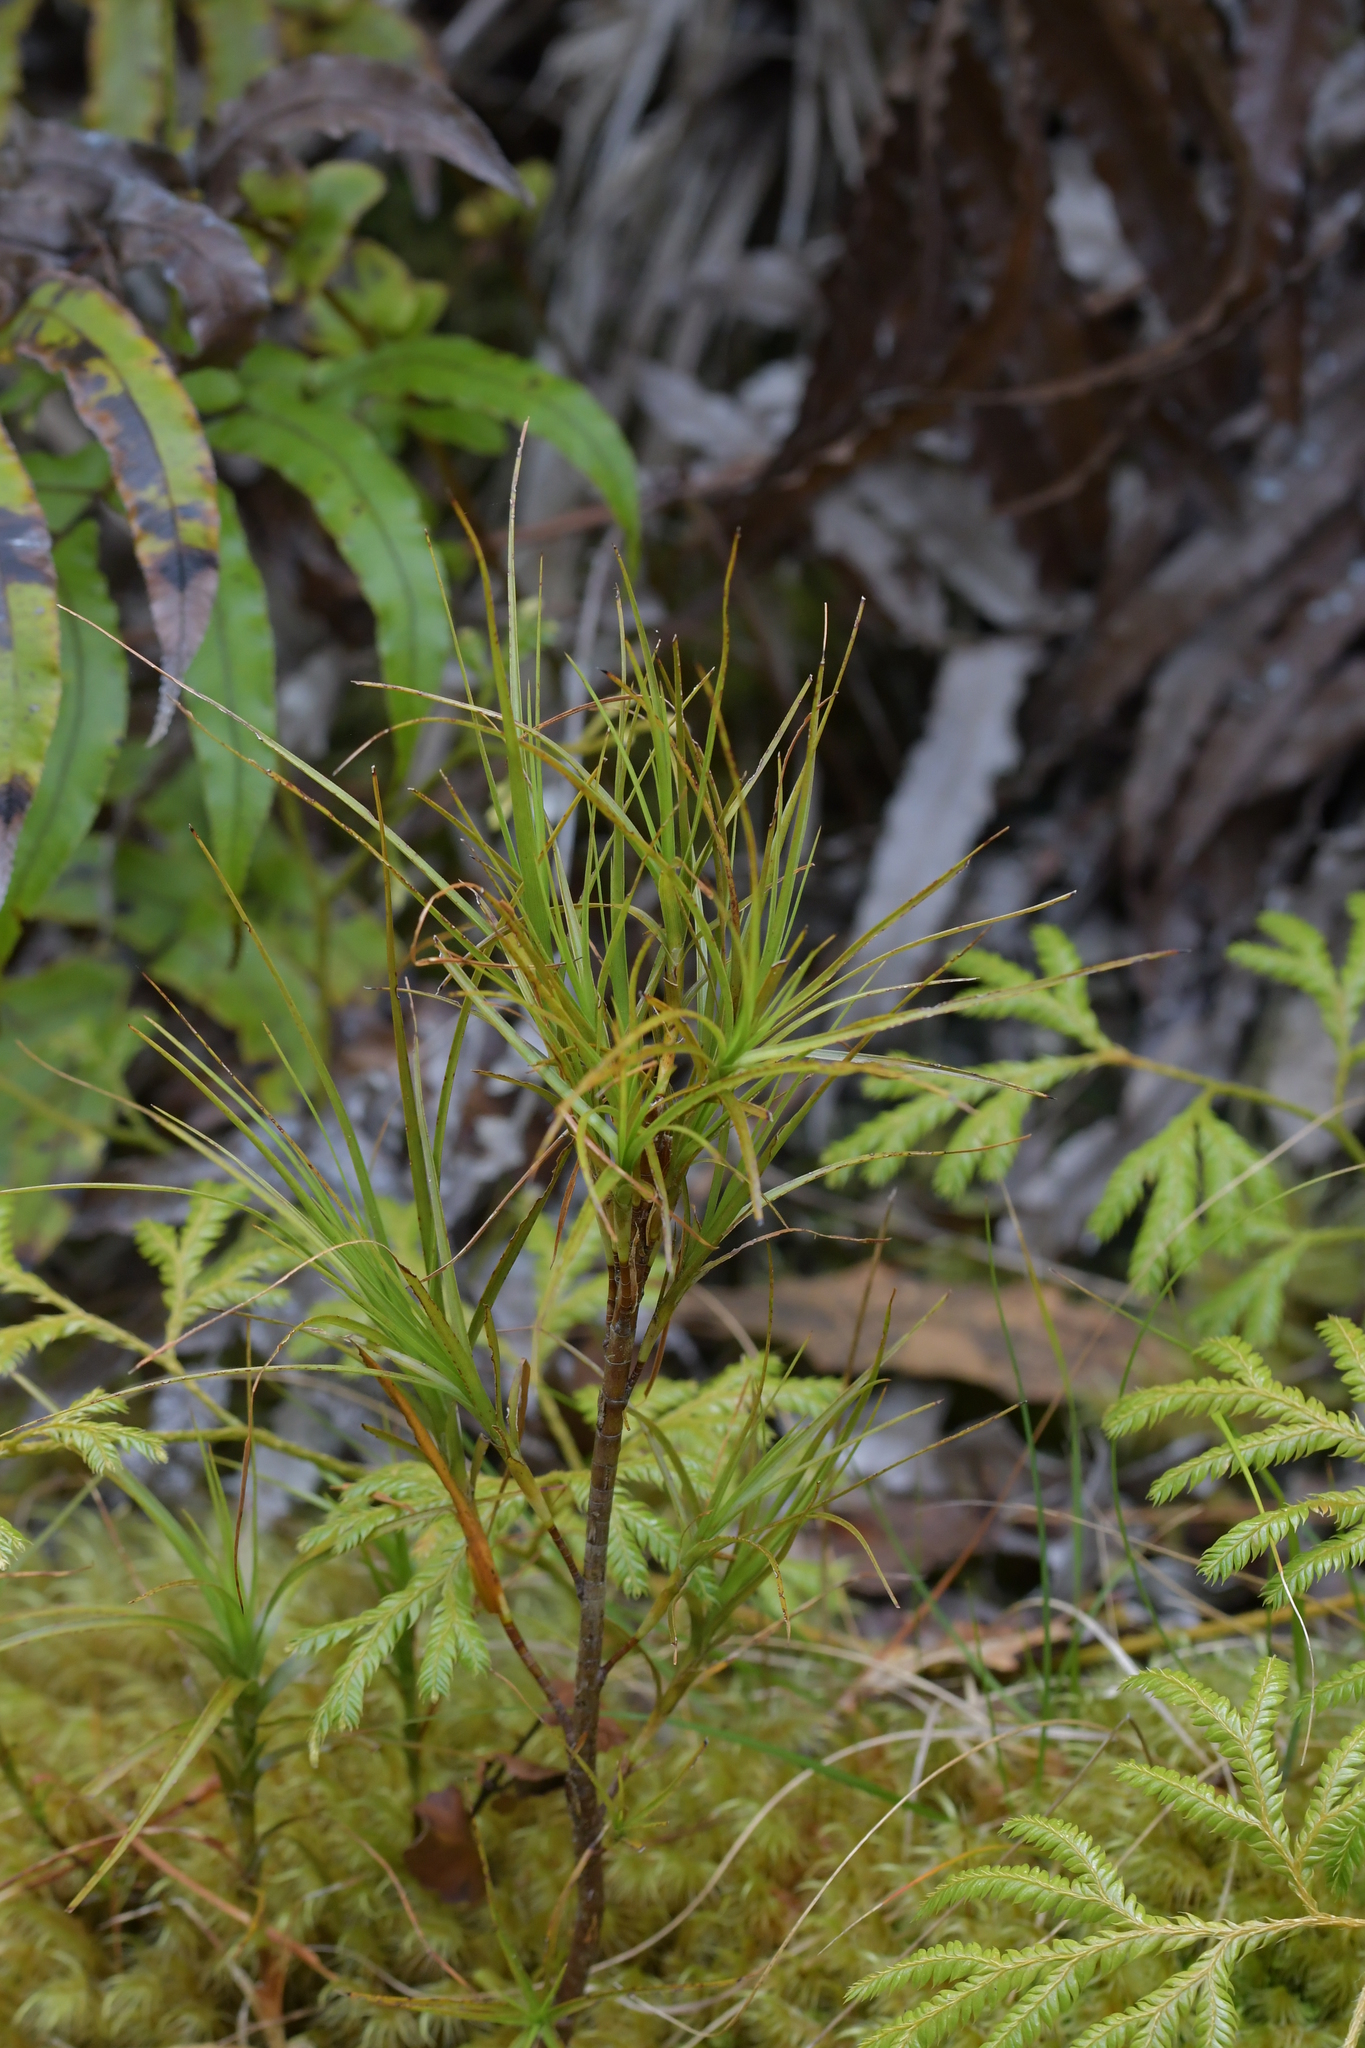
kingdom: Plantae
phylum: Tracheophyta
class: Magnoliopsida
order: Ericales
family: Ericaceae
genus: Dracophyllum
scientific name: Dracophyllum filifolium
